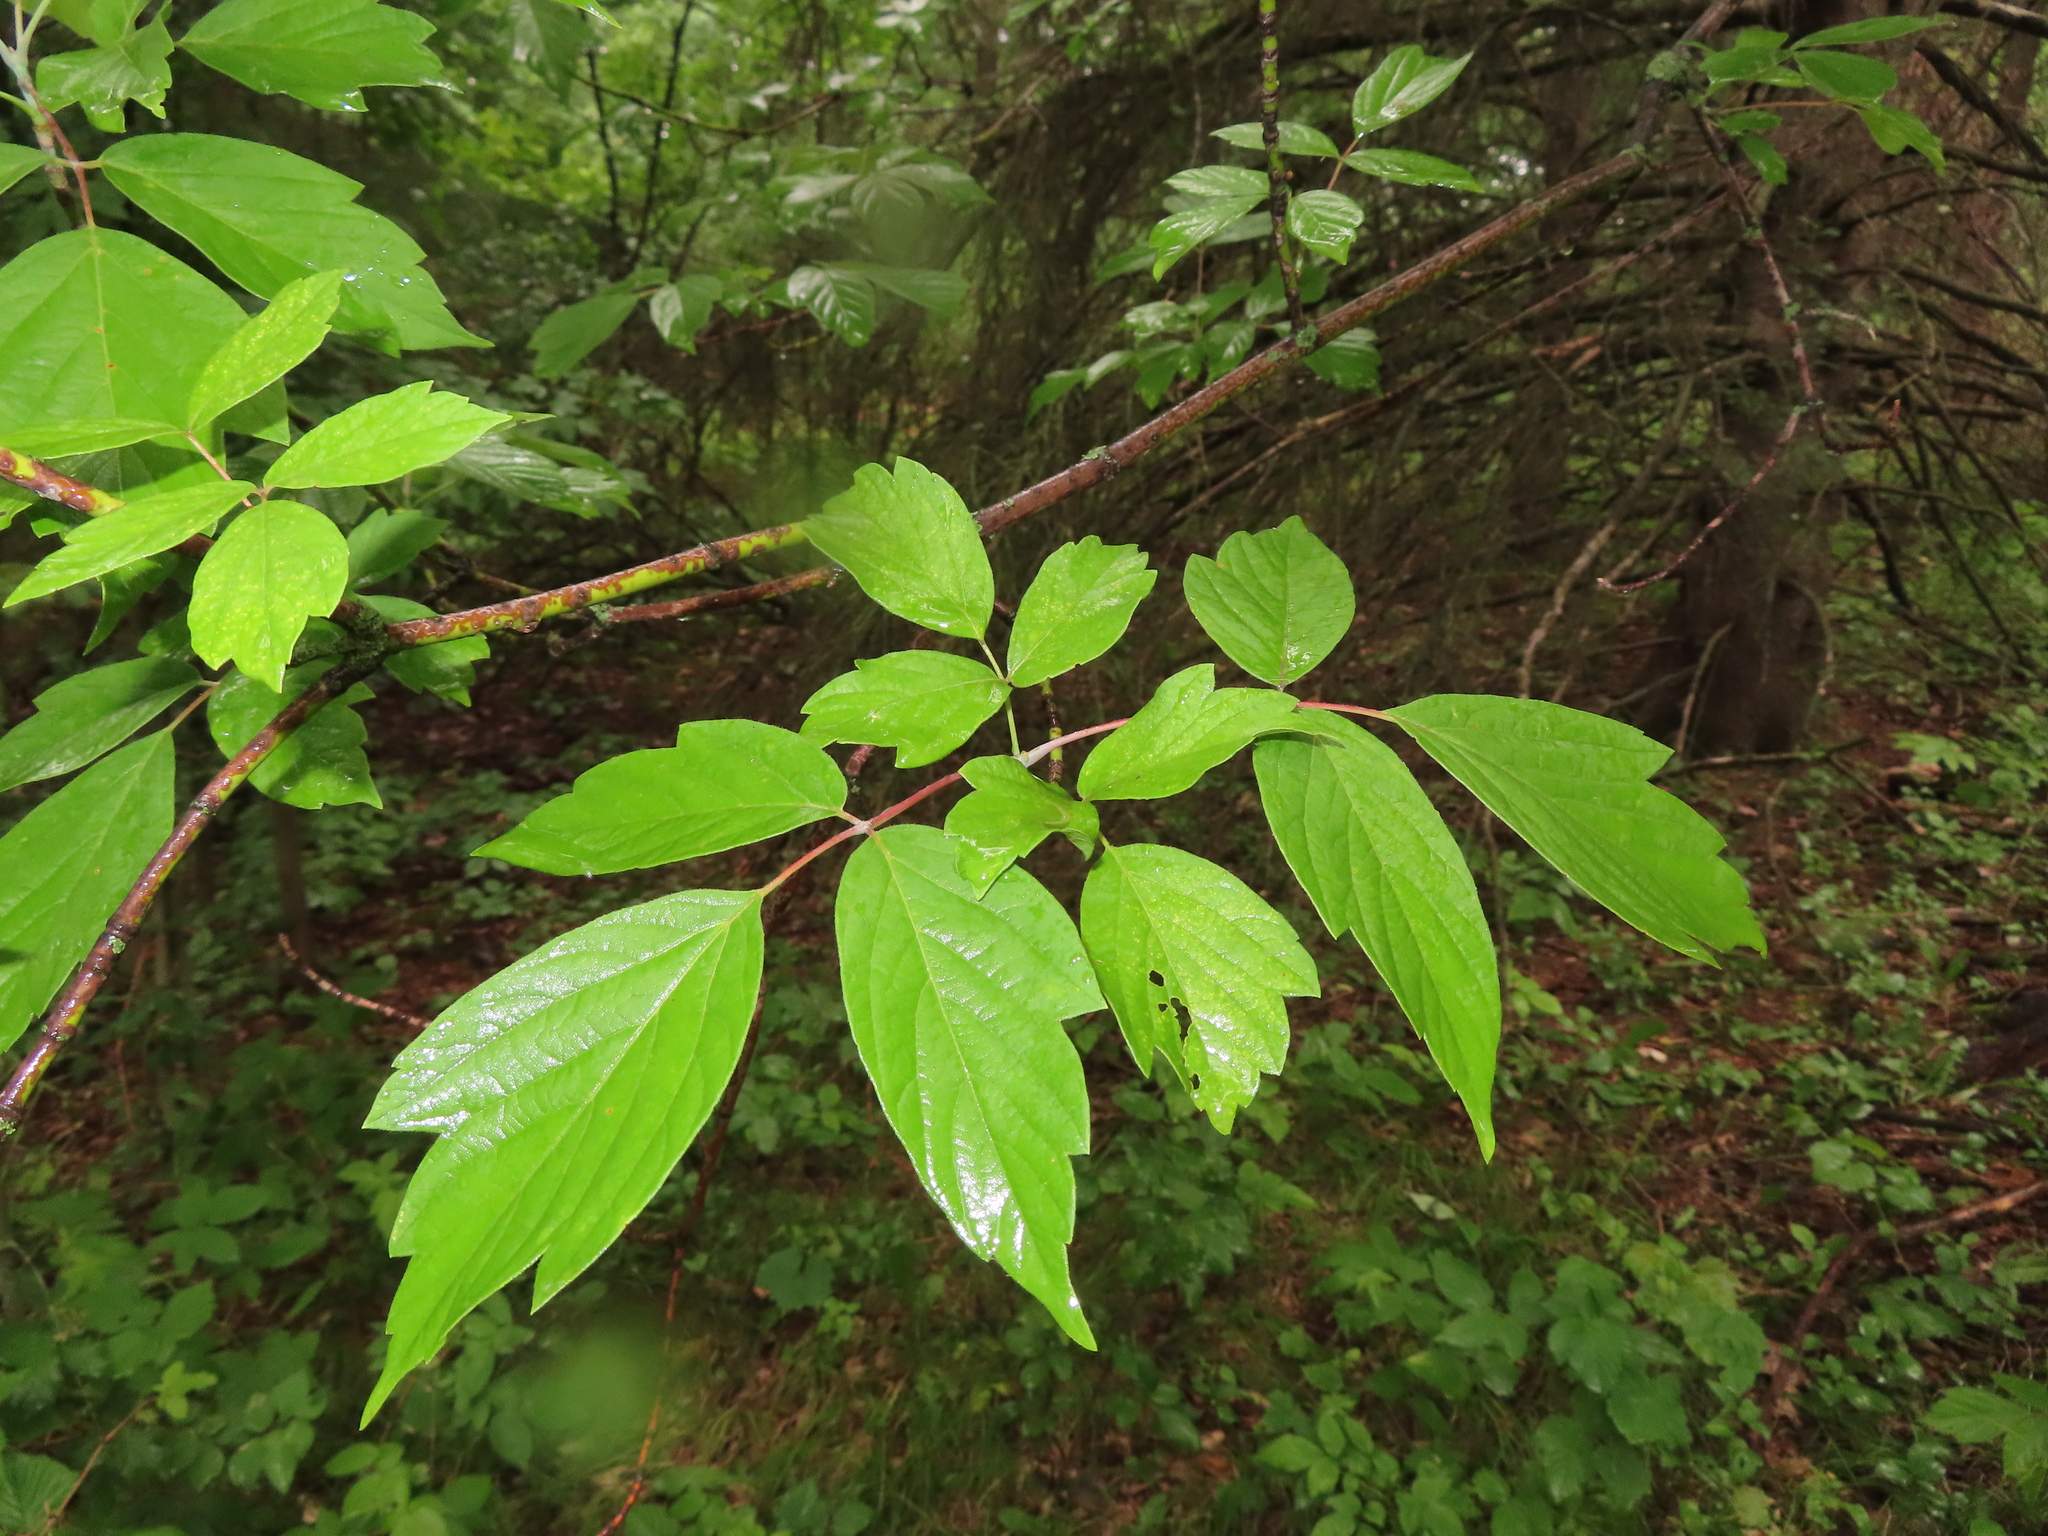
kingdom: Plantae
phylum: Tracheophyta
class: Magnoliopsida
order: Sapindales
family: Sapindaceae
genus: Acer
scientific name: Acer negundo
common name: Ashleaf maple
